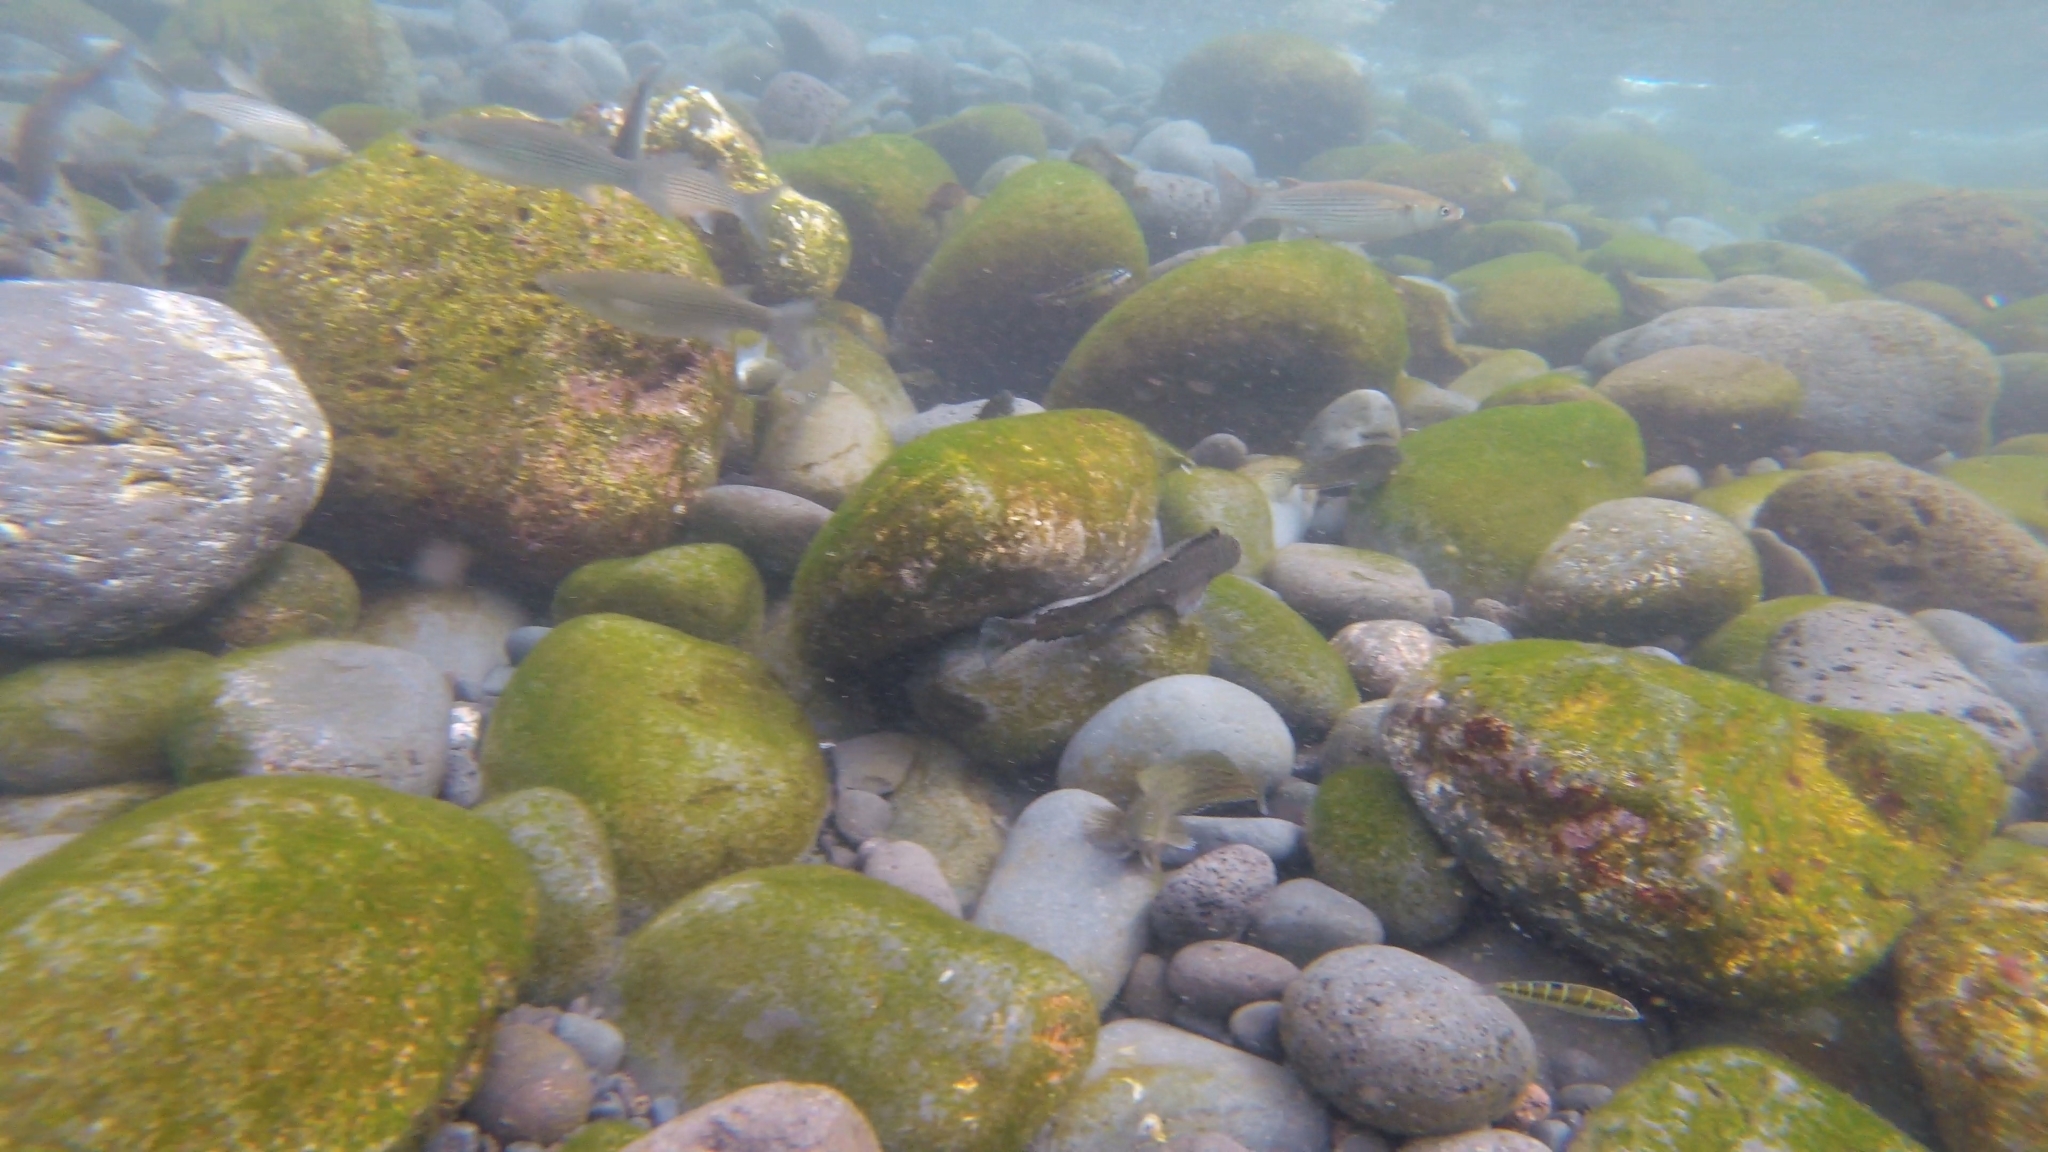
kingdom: Animalia
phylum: Chordata
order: Perciformes
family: Blenniidae
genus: Parablennius
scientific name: Parablennius parvicornis
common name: Rock-pool blenny
